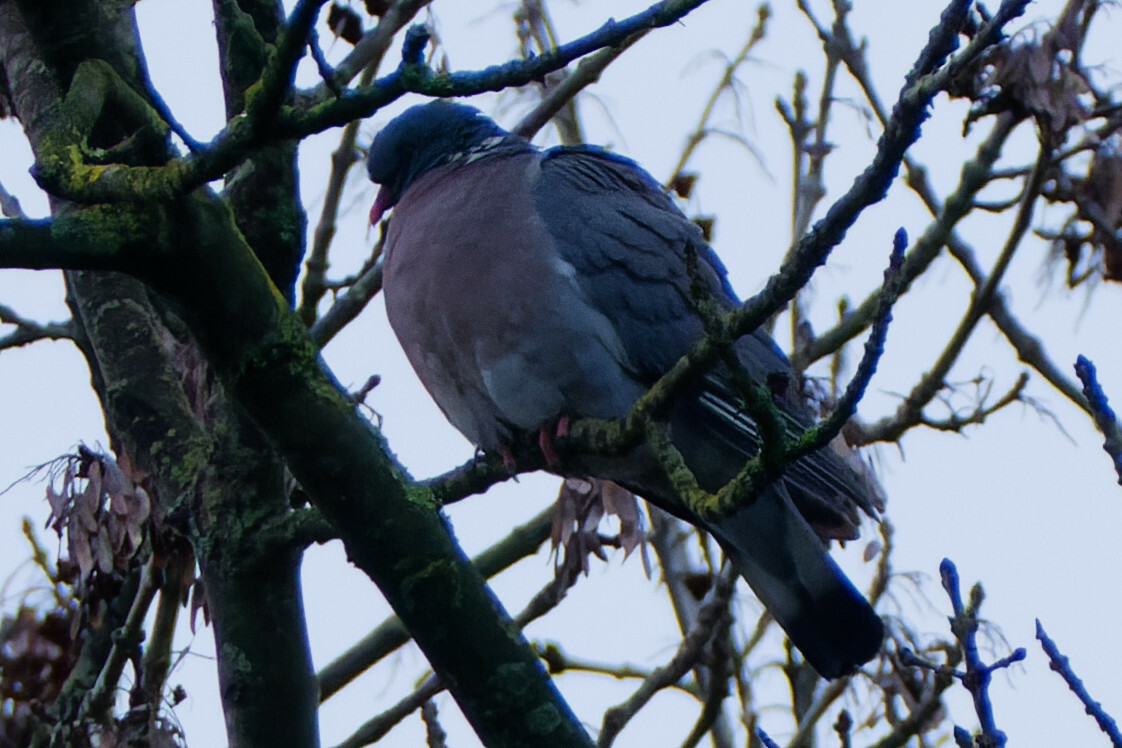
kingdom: Animalia
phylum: Chordata
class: Aves
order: Columbiformes
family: Columbidae
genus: Columba
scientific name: Columba palumbus
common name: Common wood pigeon
